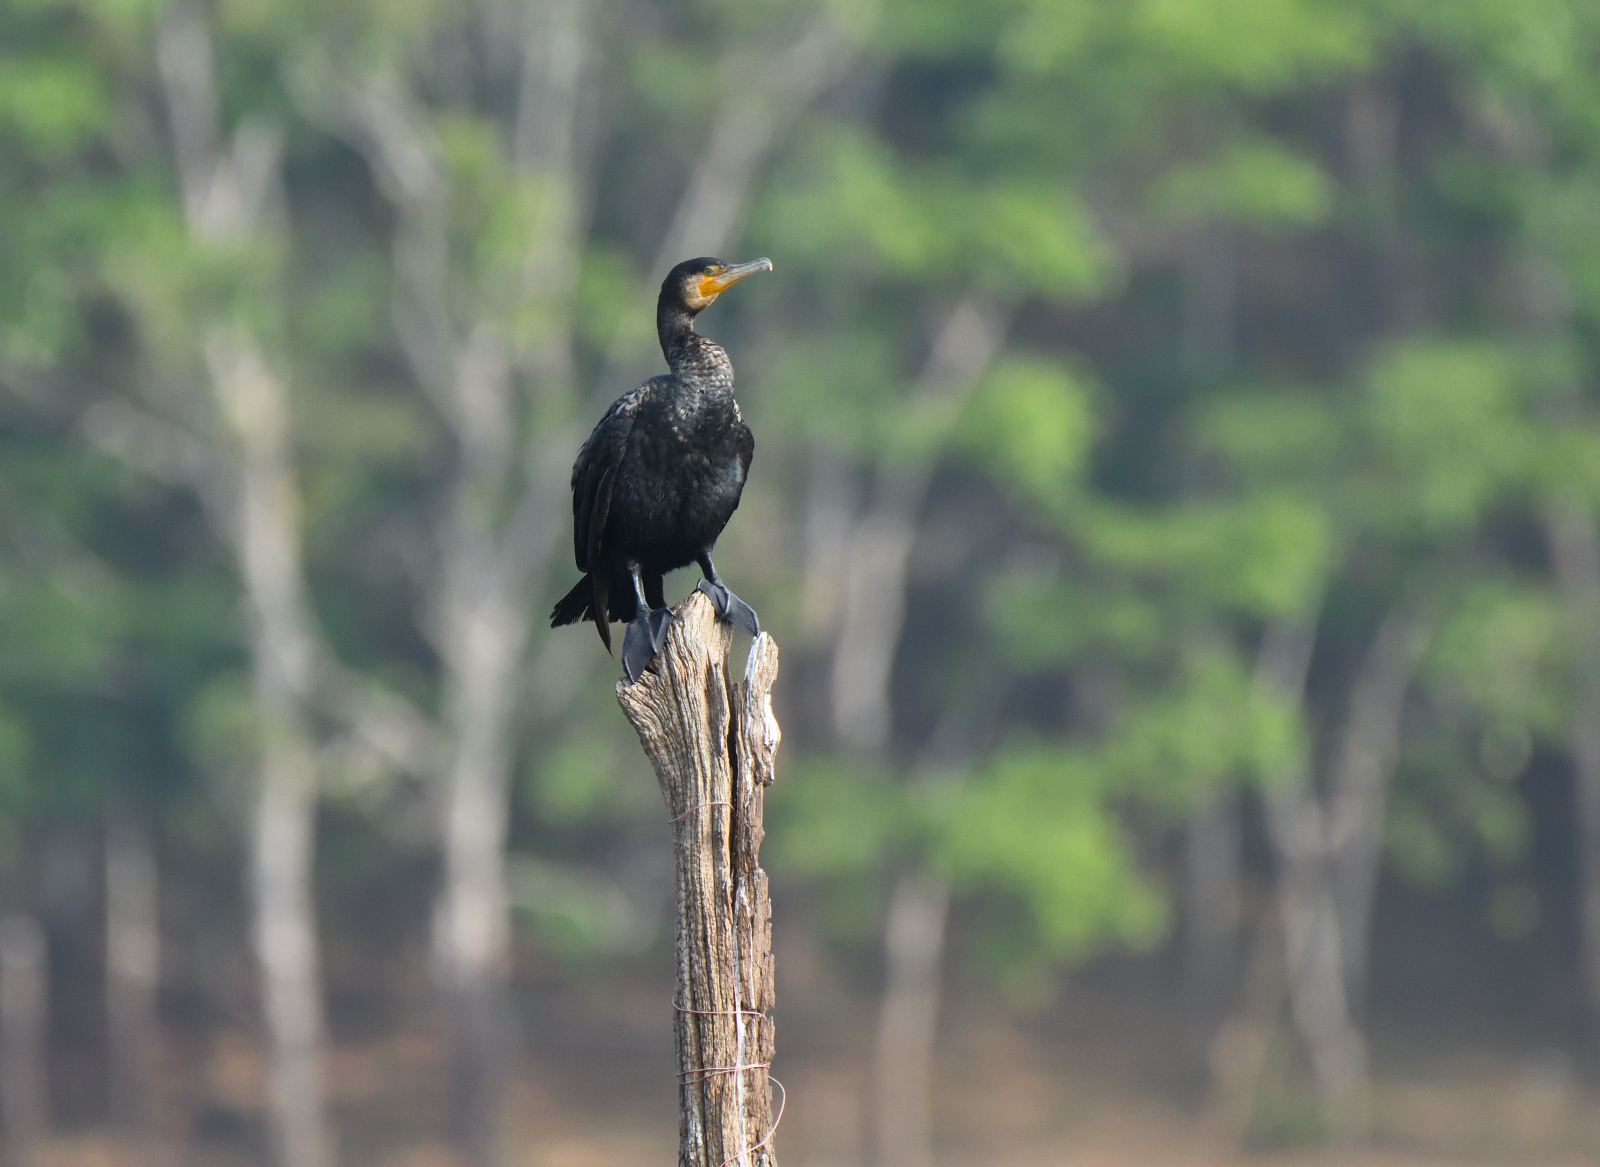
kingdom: Animalia
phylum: Chordata
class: Aves
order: Suliformes
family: Phalacrocoracidae
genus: Phalacrocorax
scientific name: Phalacrocorax carbo
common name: Great cormorant
